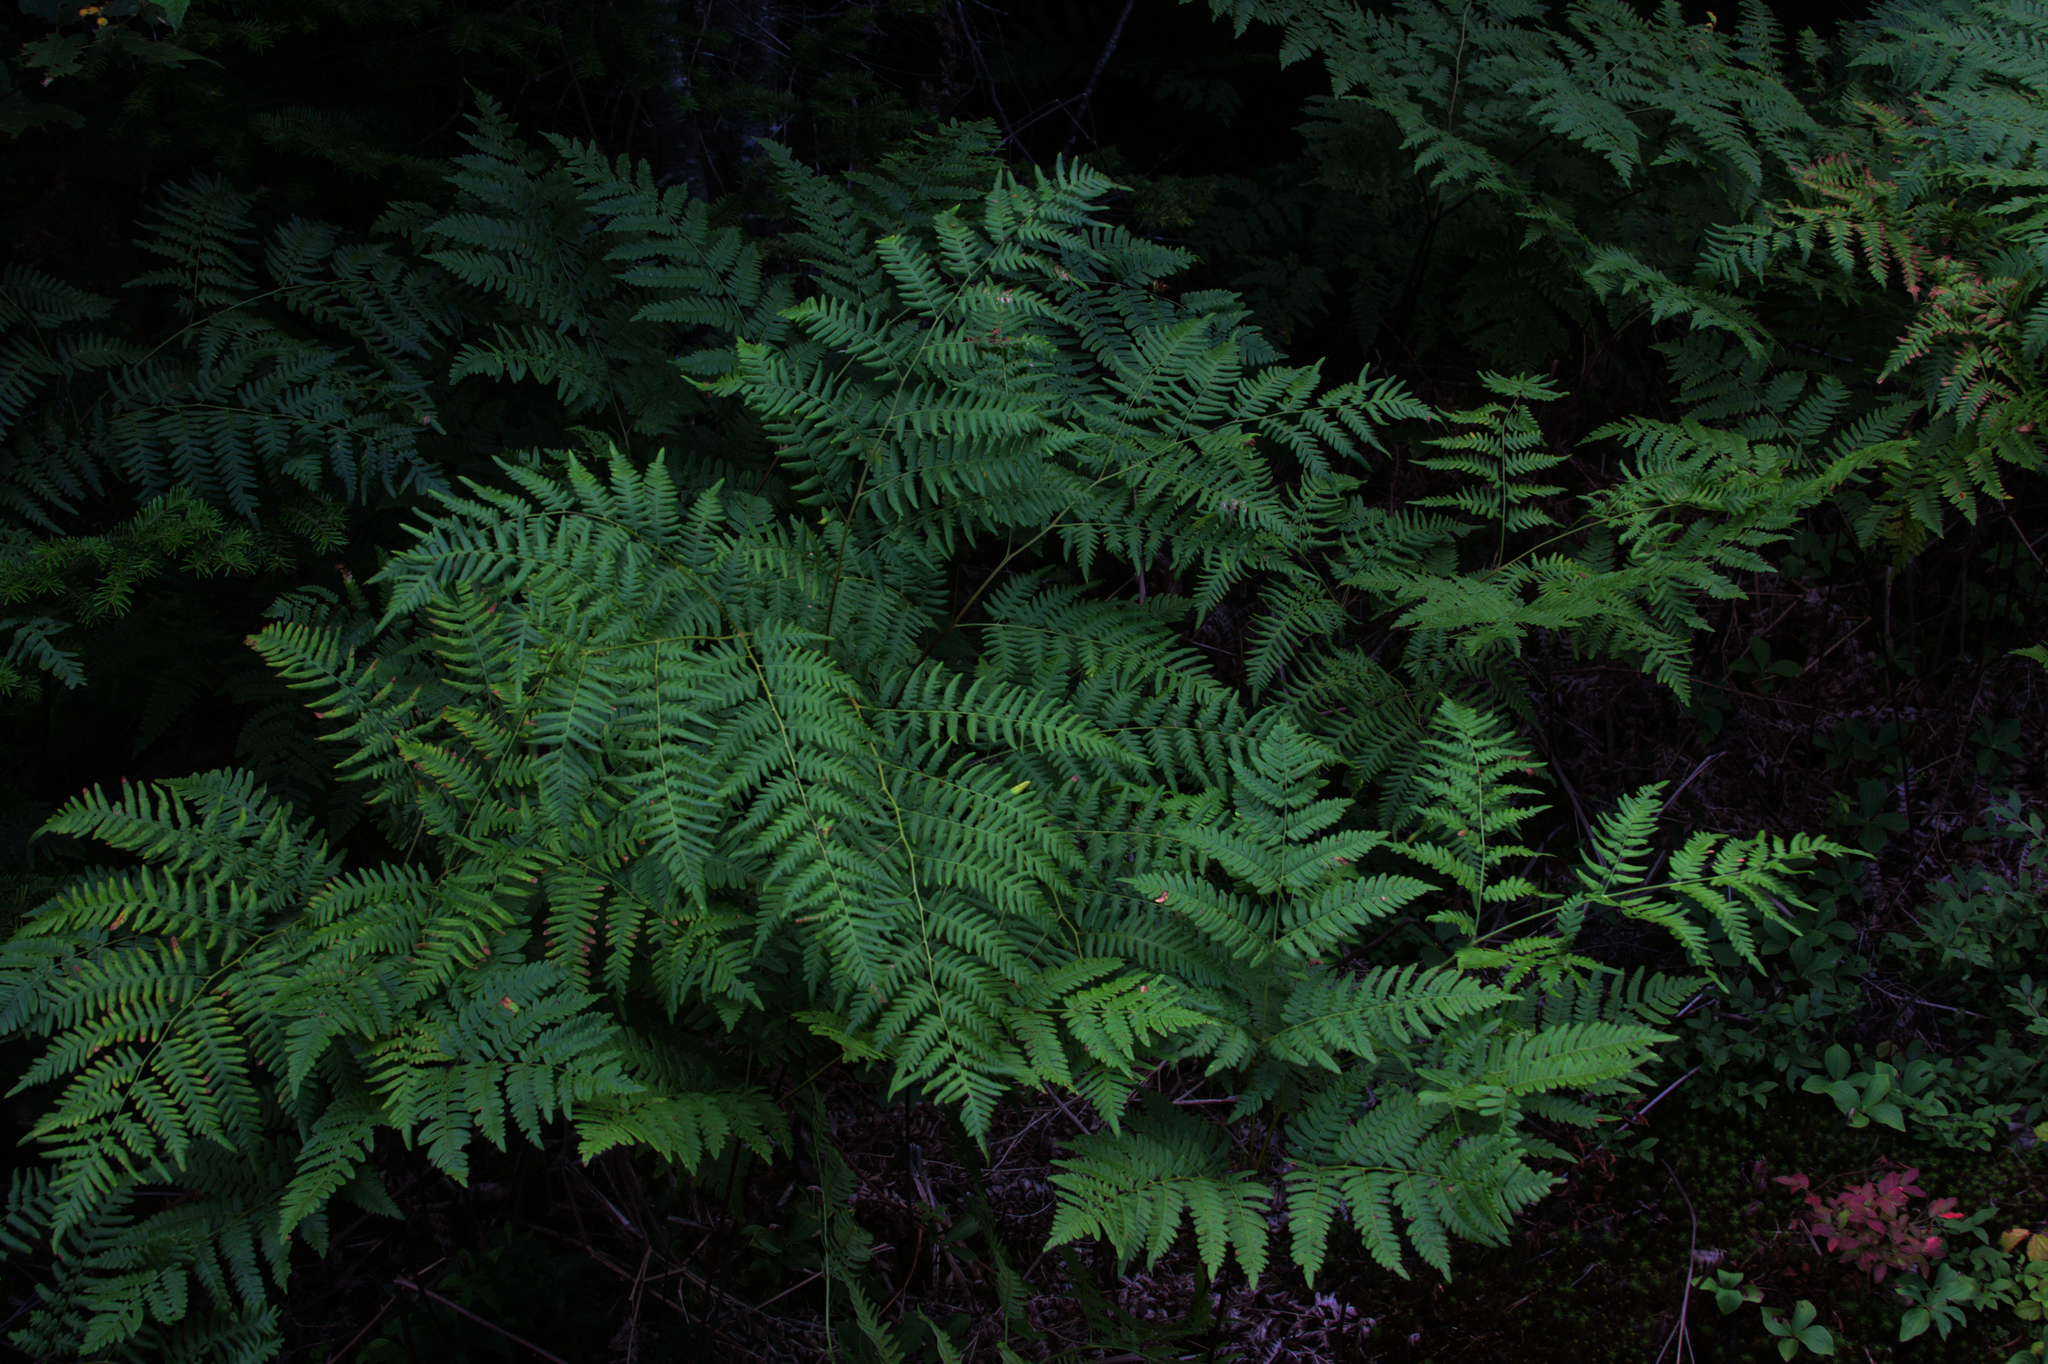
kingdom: Plantae
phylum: Tracheophyta
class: Polypodiopsida
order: Polypodiales
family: Dennstaedtiaceae
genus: Pteridium
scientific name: Pteridium aquilinum
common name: Bracken
